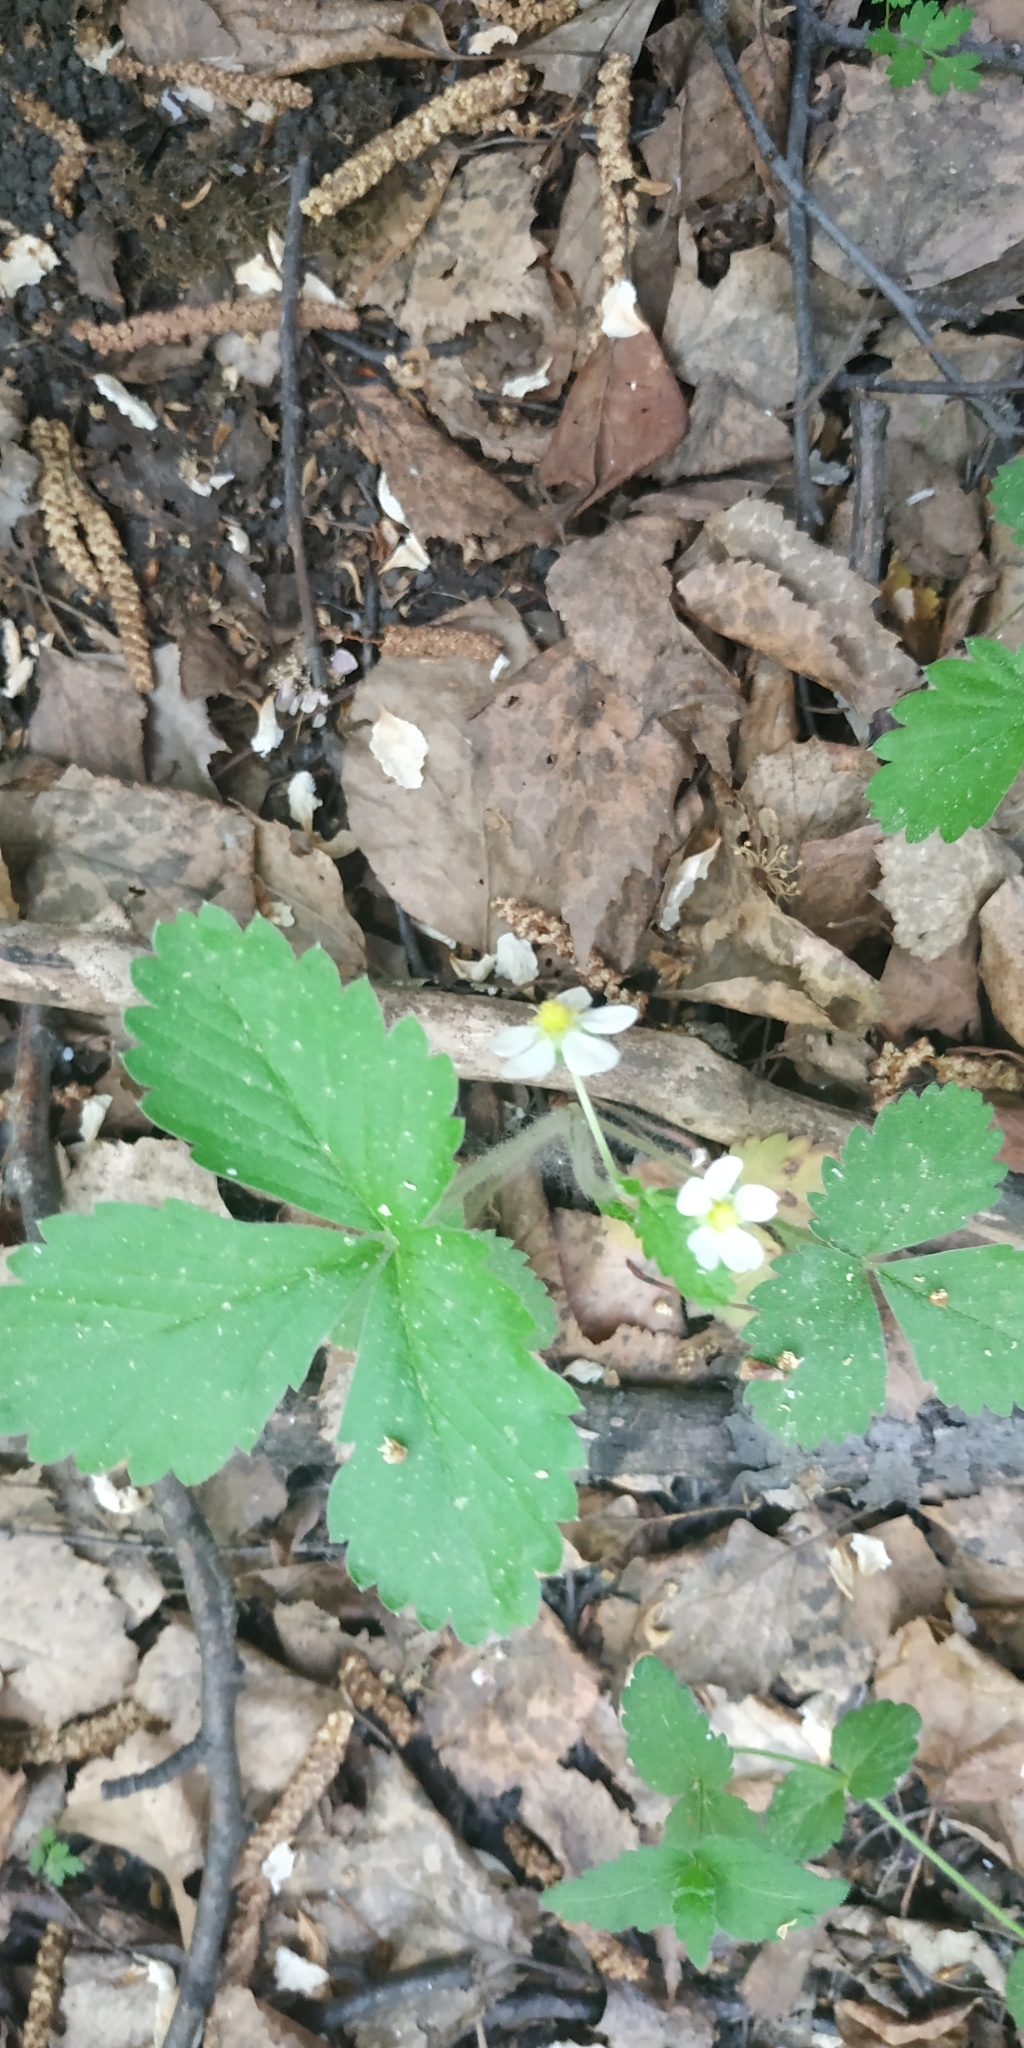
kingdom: Plantae
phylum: Tracheophyta
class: Magnoliopsida
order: Rosales
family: Rosaceae
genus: Fragaria
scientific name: Fragaria vesca
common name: Wild strawberry
